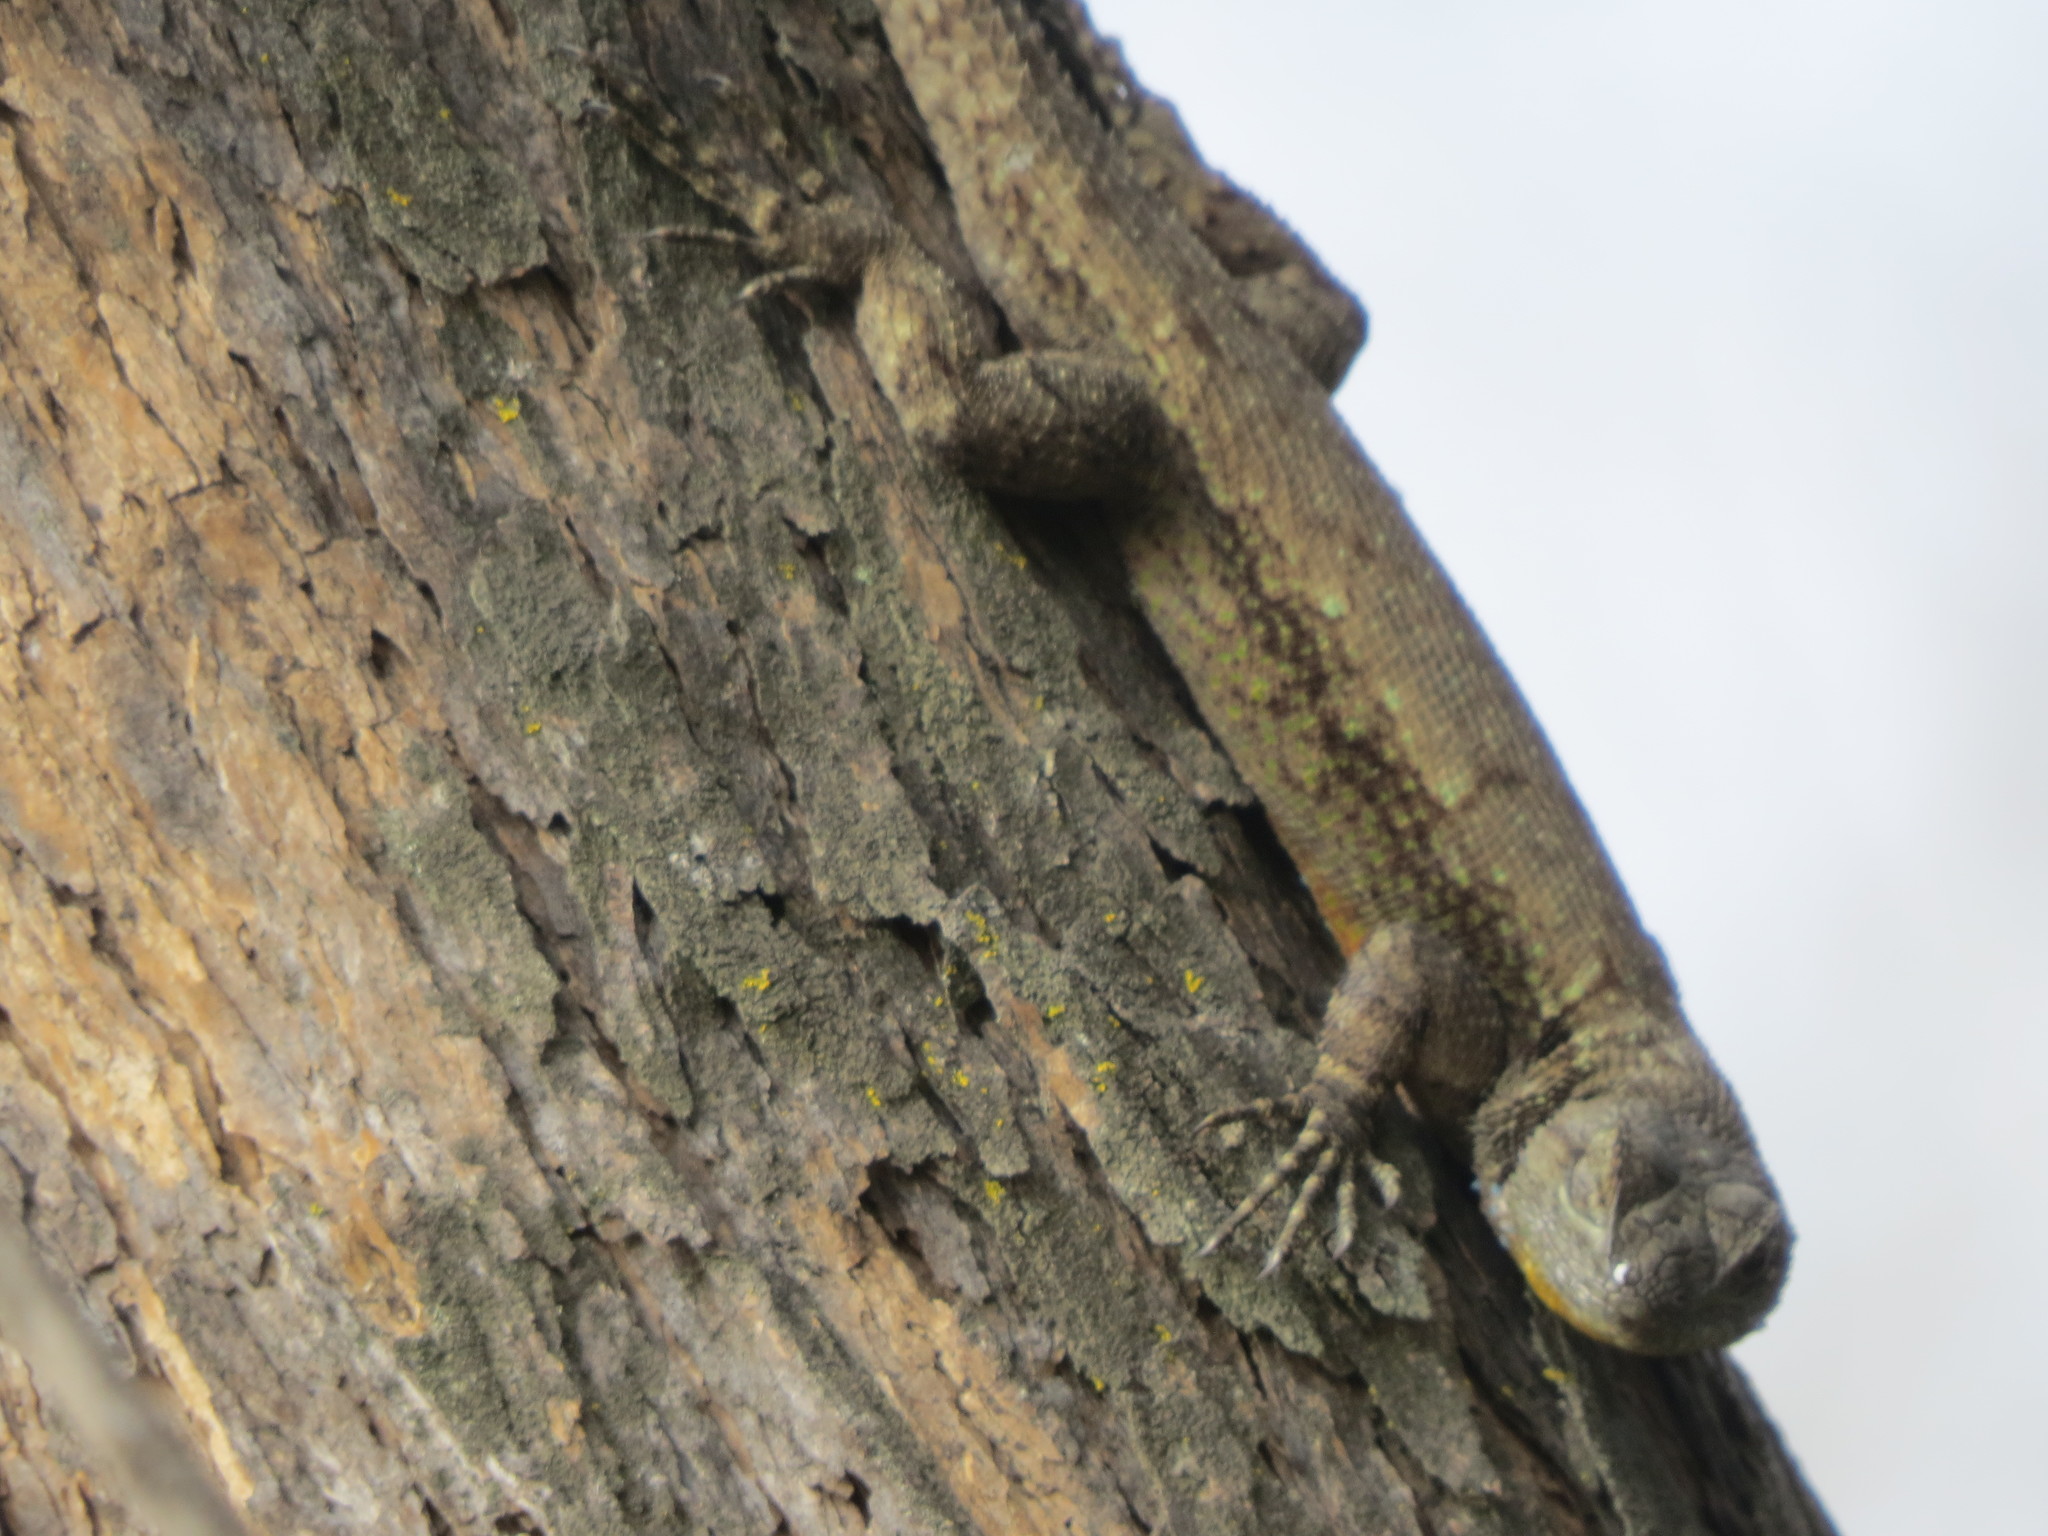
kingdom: Animalia
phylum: Chordata
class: Squamata
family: Phrynosomatidae
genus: Sceloporus
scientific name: Sceloporus grammicus
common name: Mesquite lizard
